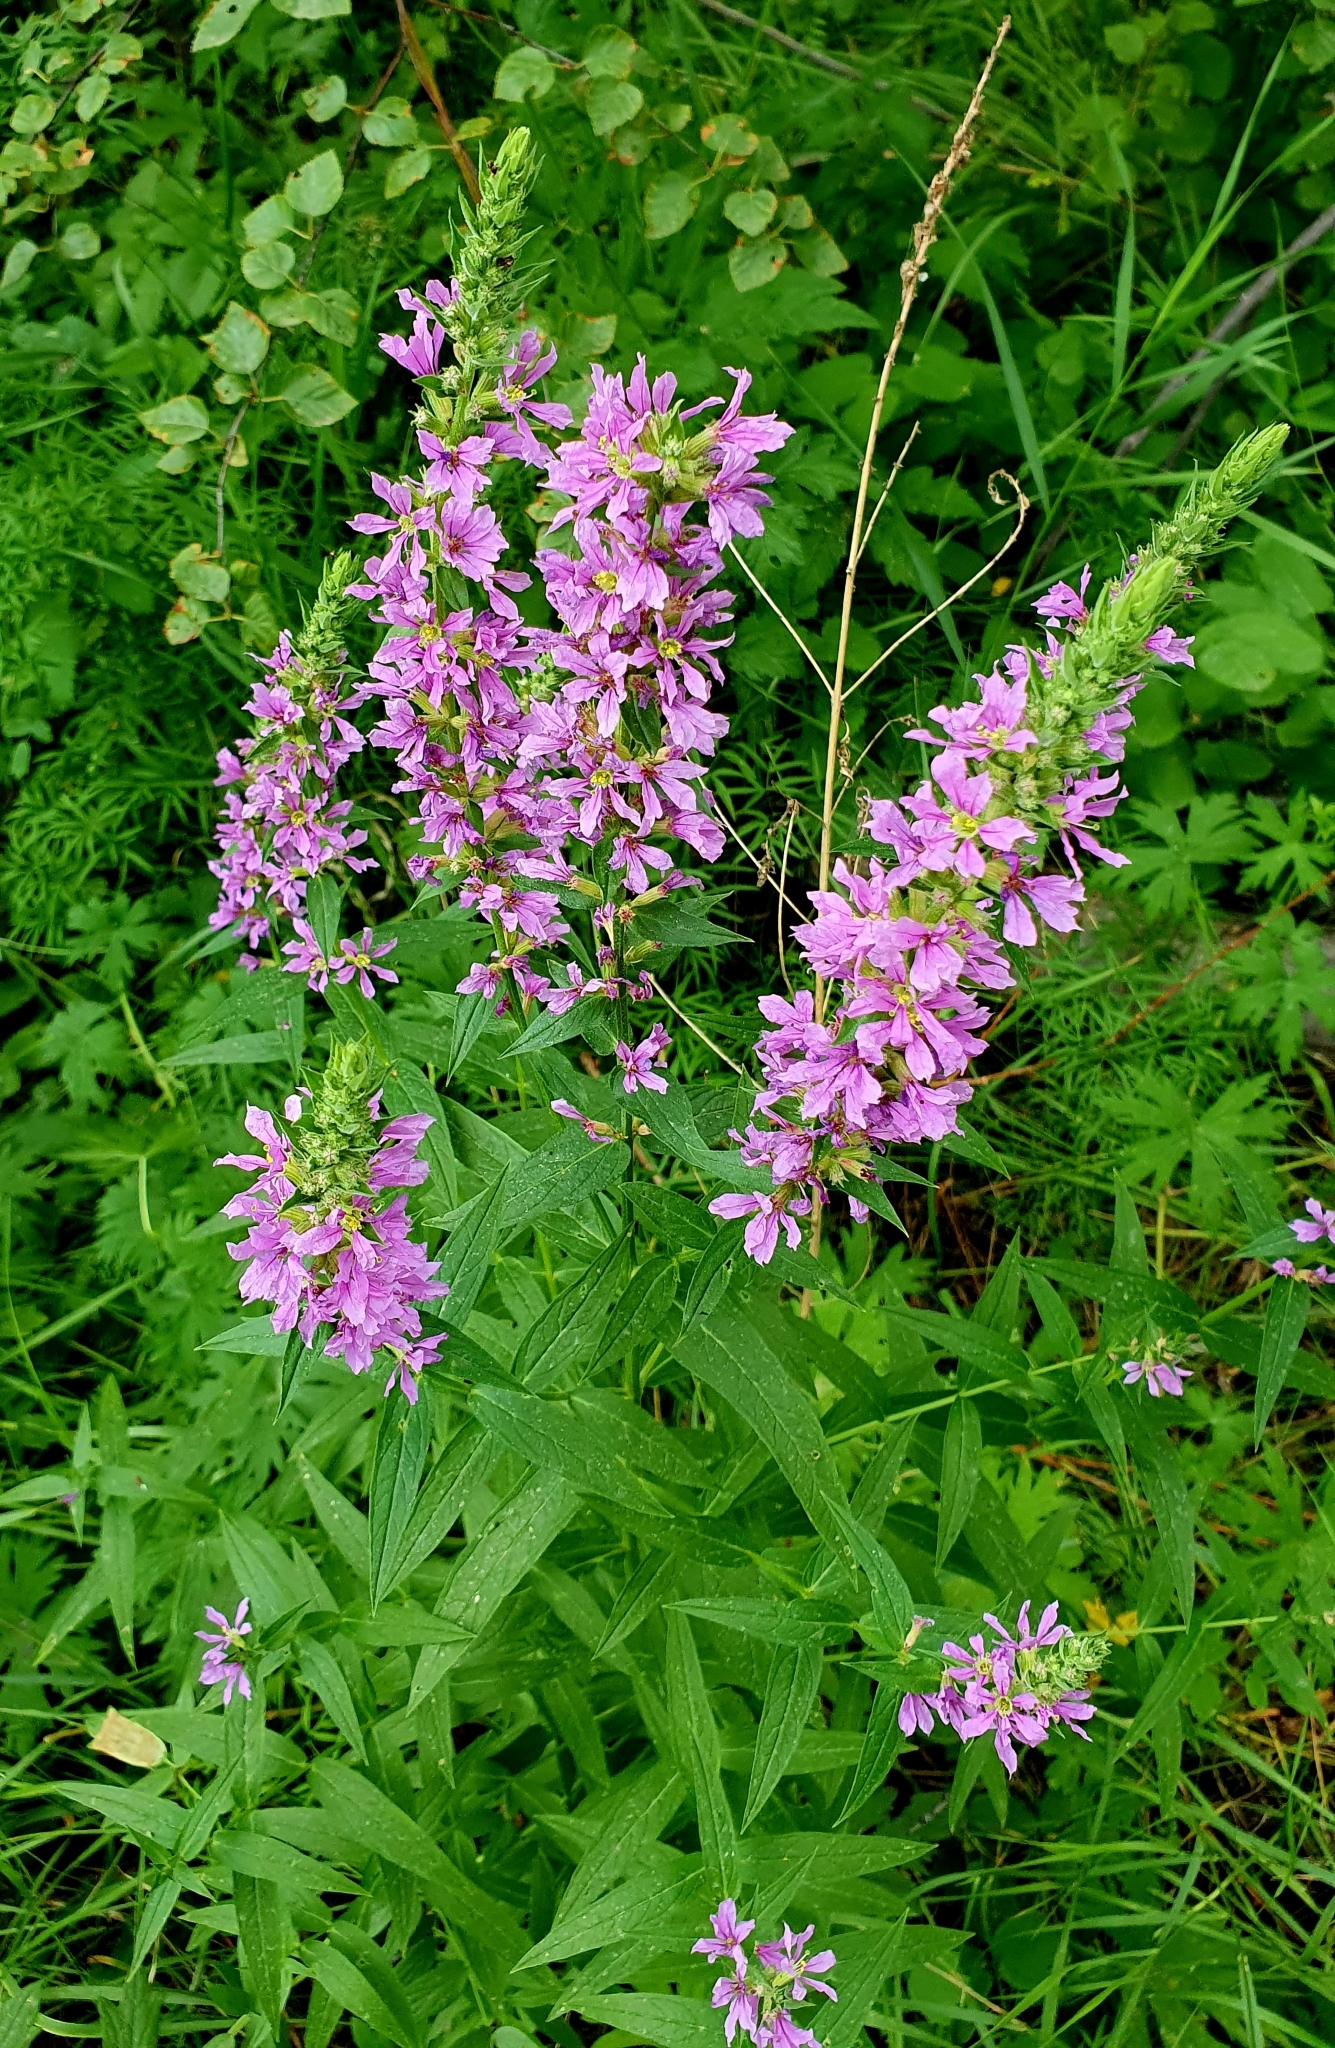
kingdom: Plantae
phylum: Tracheophyta
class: Magnoliopsida
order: Myrtales
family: Lythraceae
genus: Lythrum
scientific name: Lythrum salicaria
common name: Purple loosestrife
